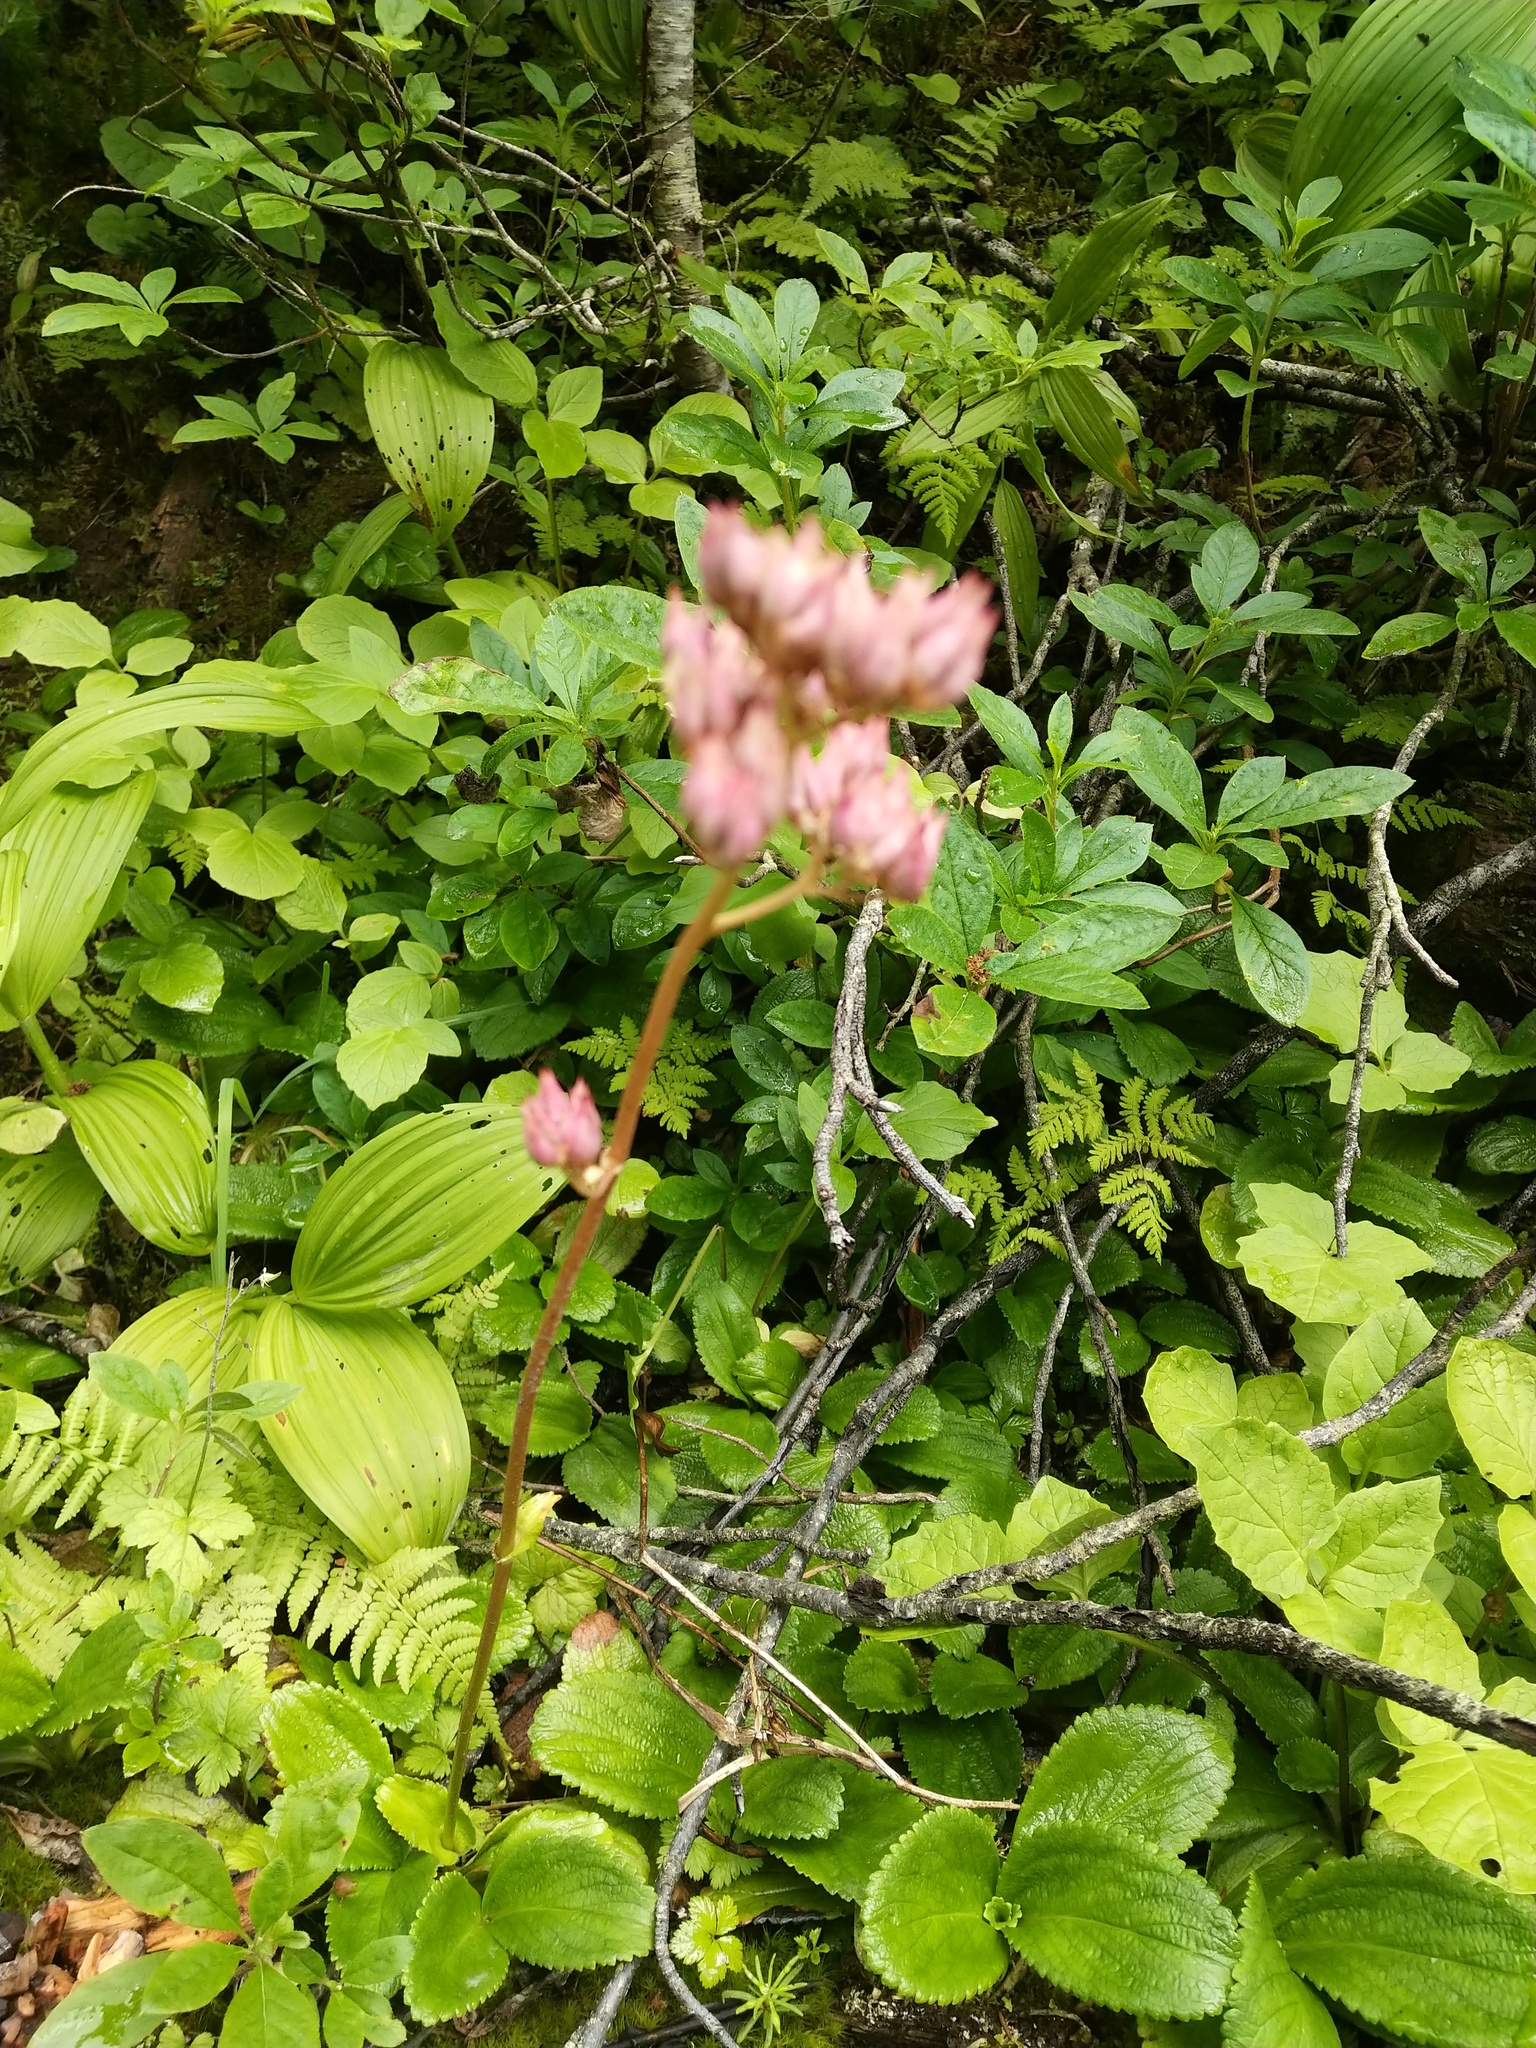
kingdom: Plantae
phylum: Tracheophyta
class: Magnoliopsida
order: Saxifragales
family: Saxifragaceae
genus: Leptarrhena
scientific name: Leptarrhena pyrolifolia
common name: Leatherleaf-saxifrage
